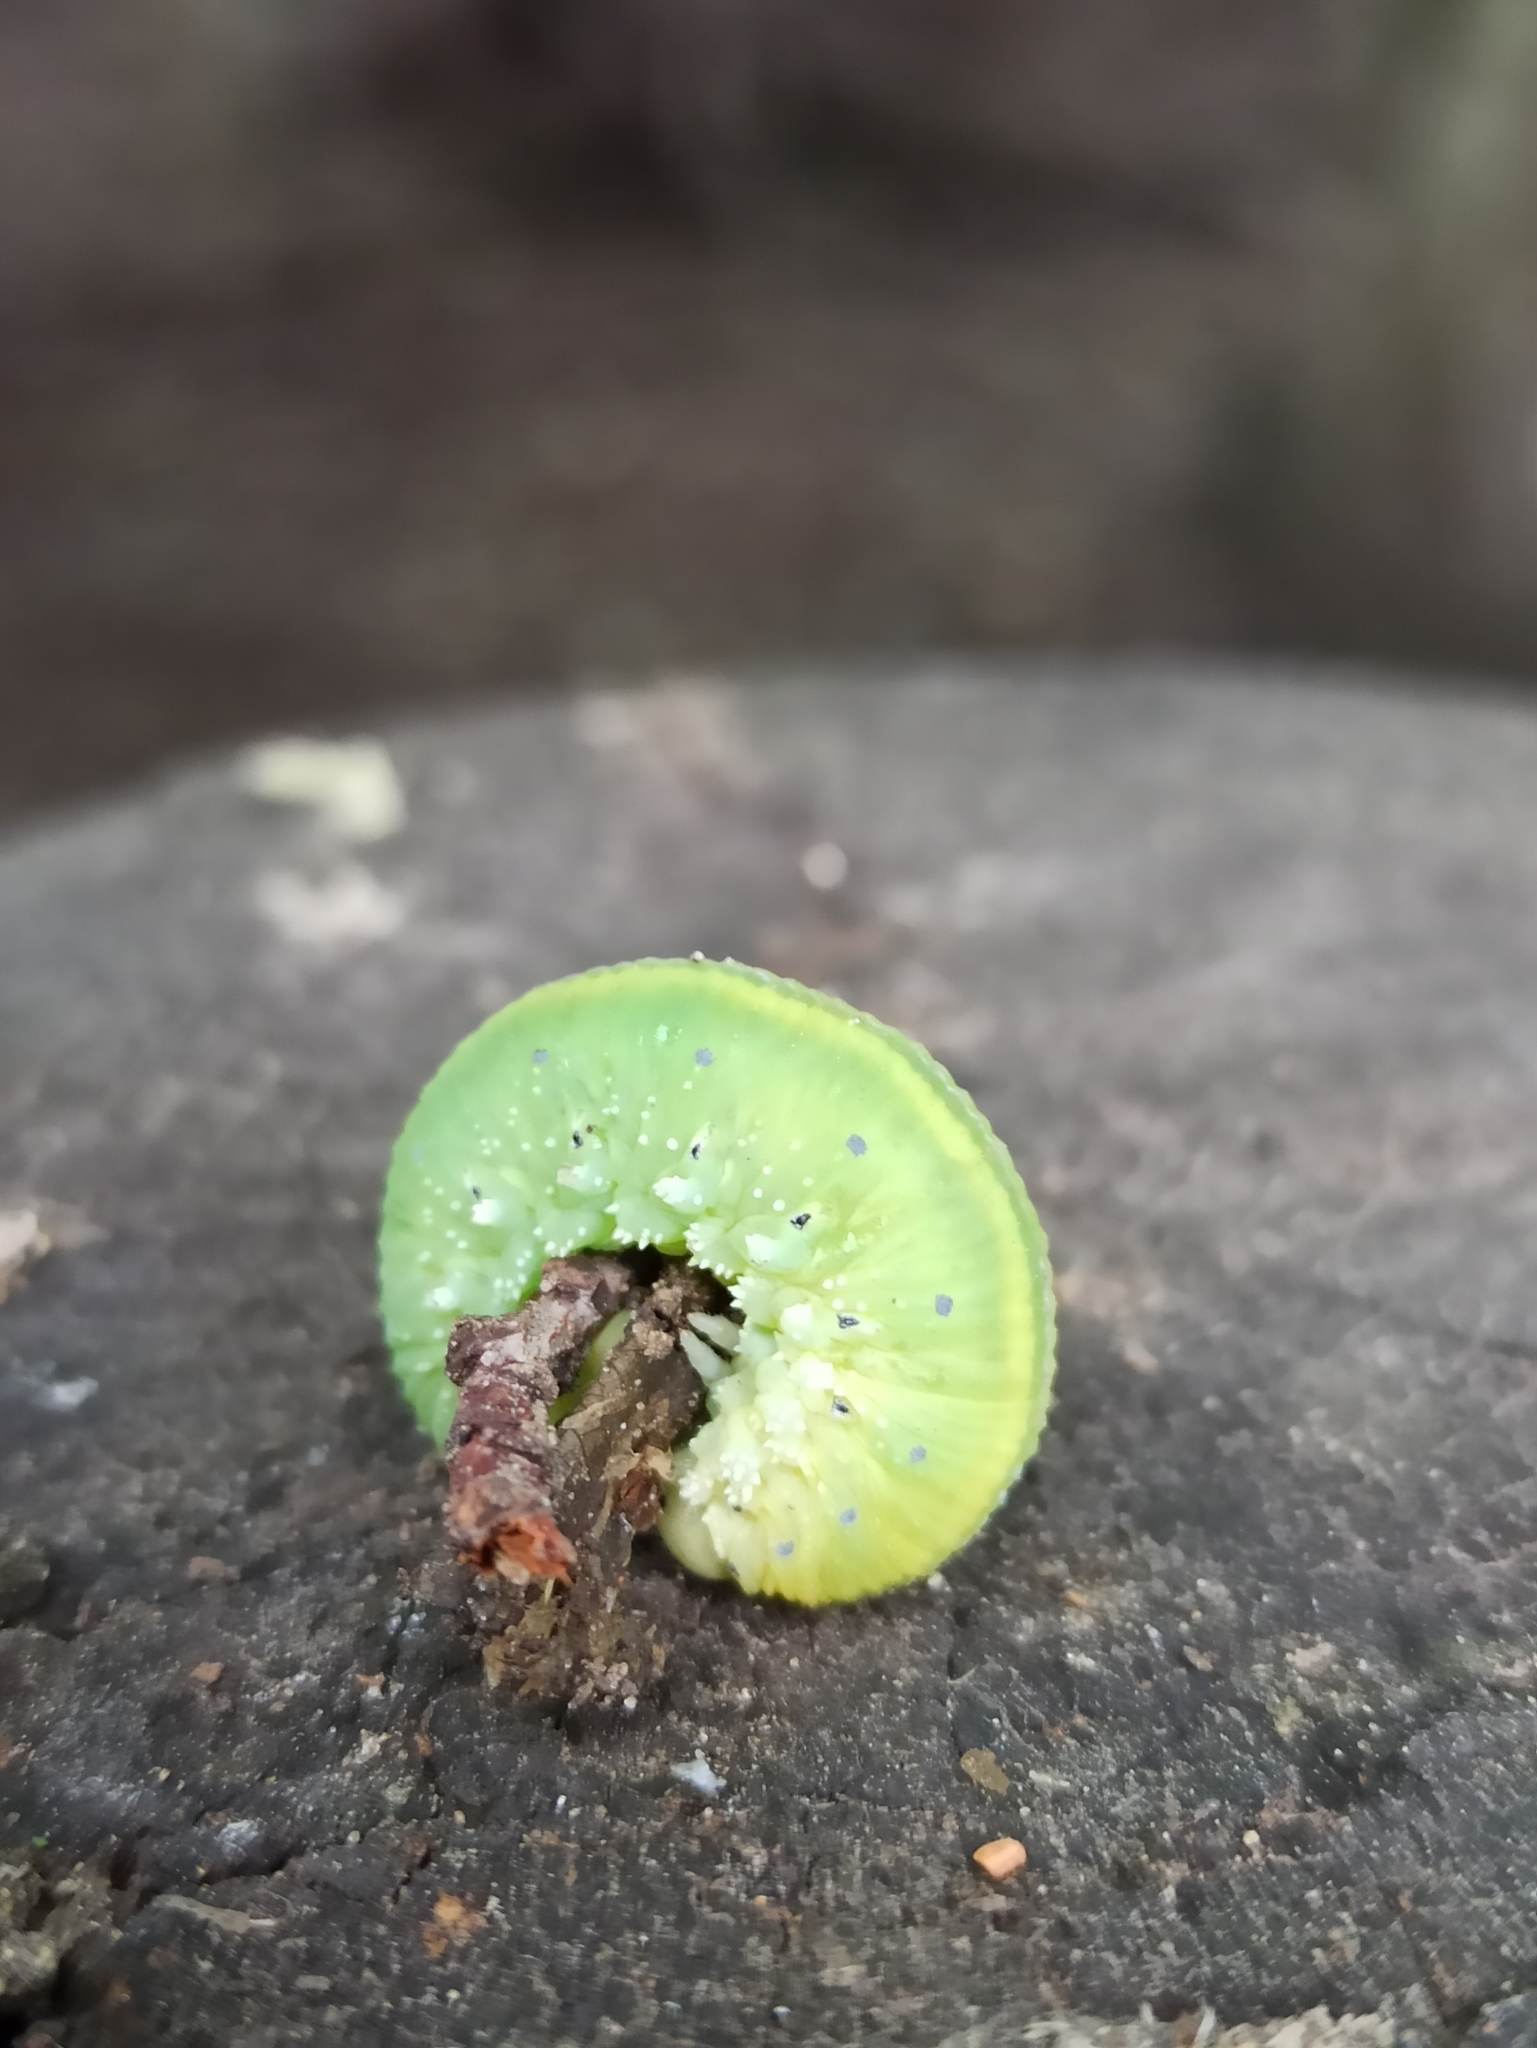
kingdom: Animalia
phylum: Arthropoda
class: Insecta
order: Hymenoptera
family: Cimbicidae
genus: Cimbex
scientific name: Cimbex connatus
